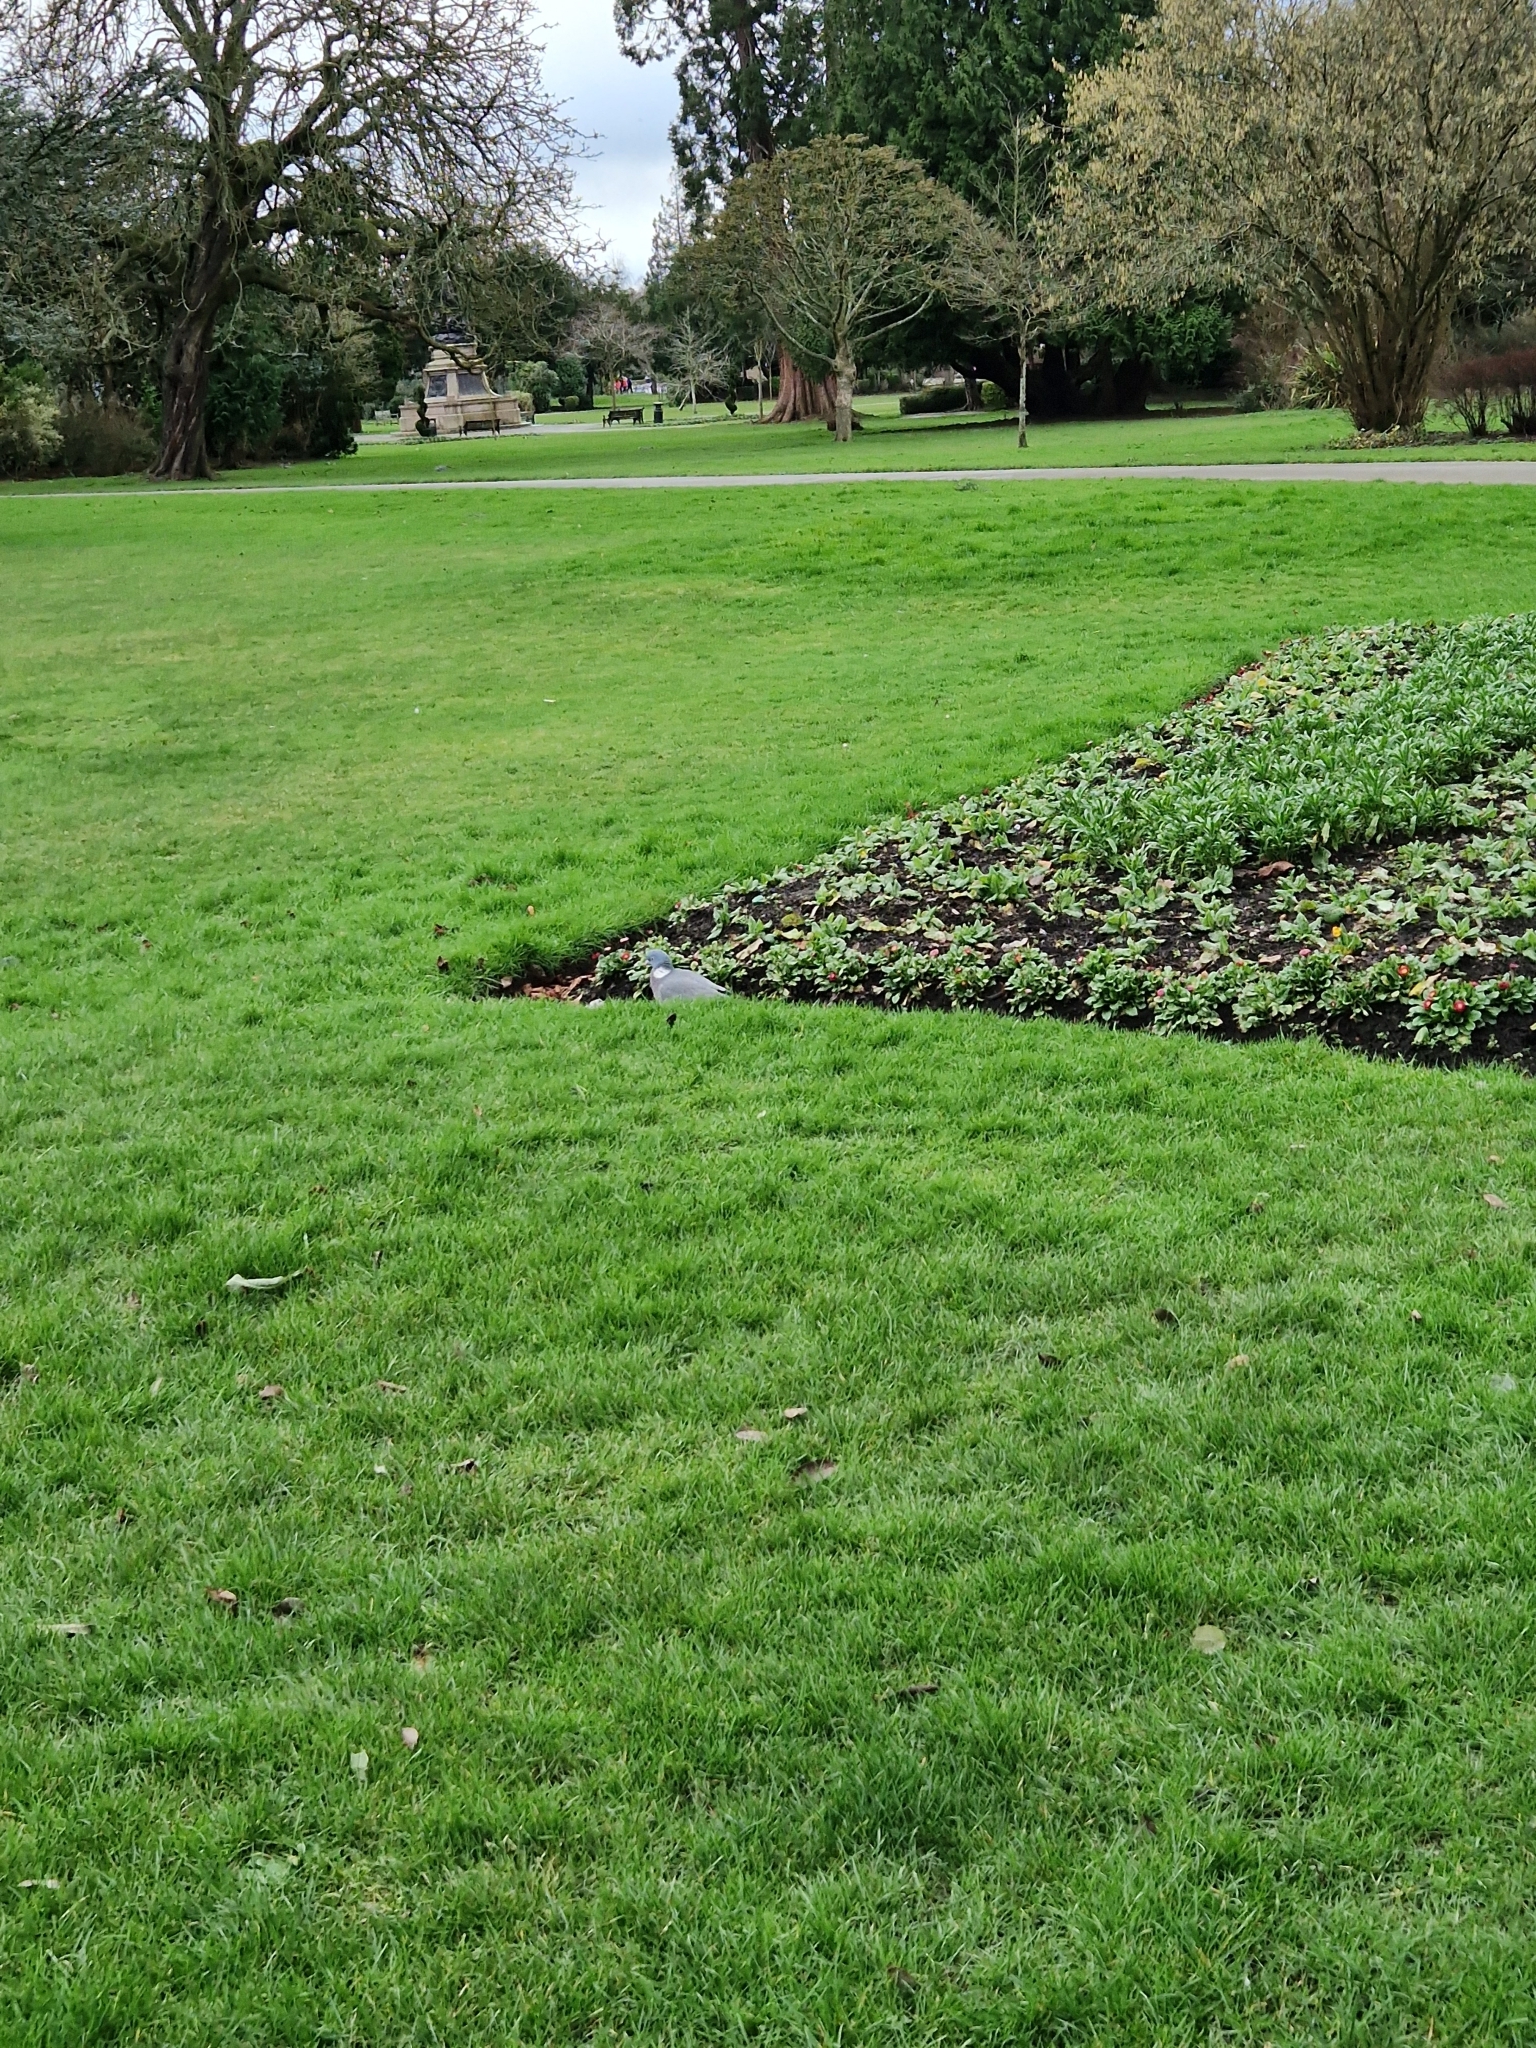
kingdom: Animalia
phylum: Chordata
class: Aves
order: Columbiformes
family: Columbidae
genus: Columba
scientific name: Columba palumbus
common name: Common wood pigeon
